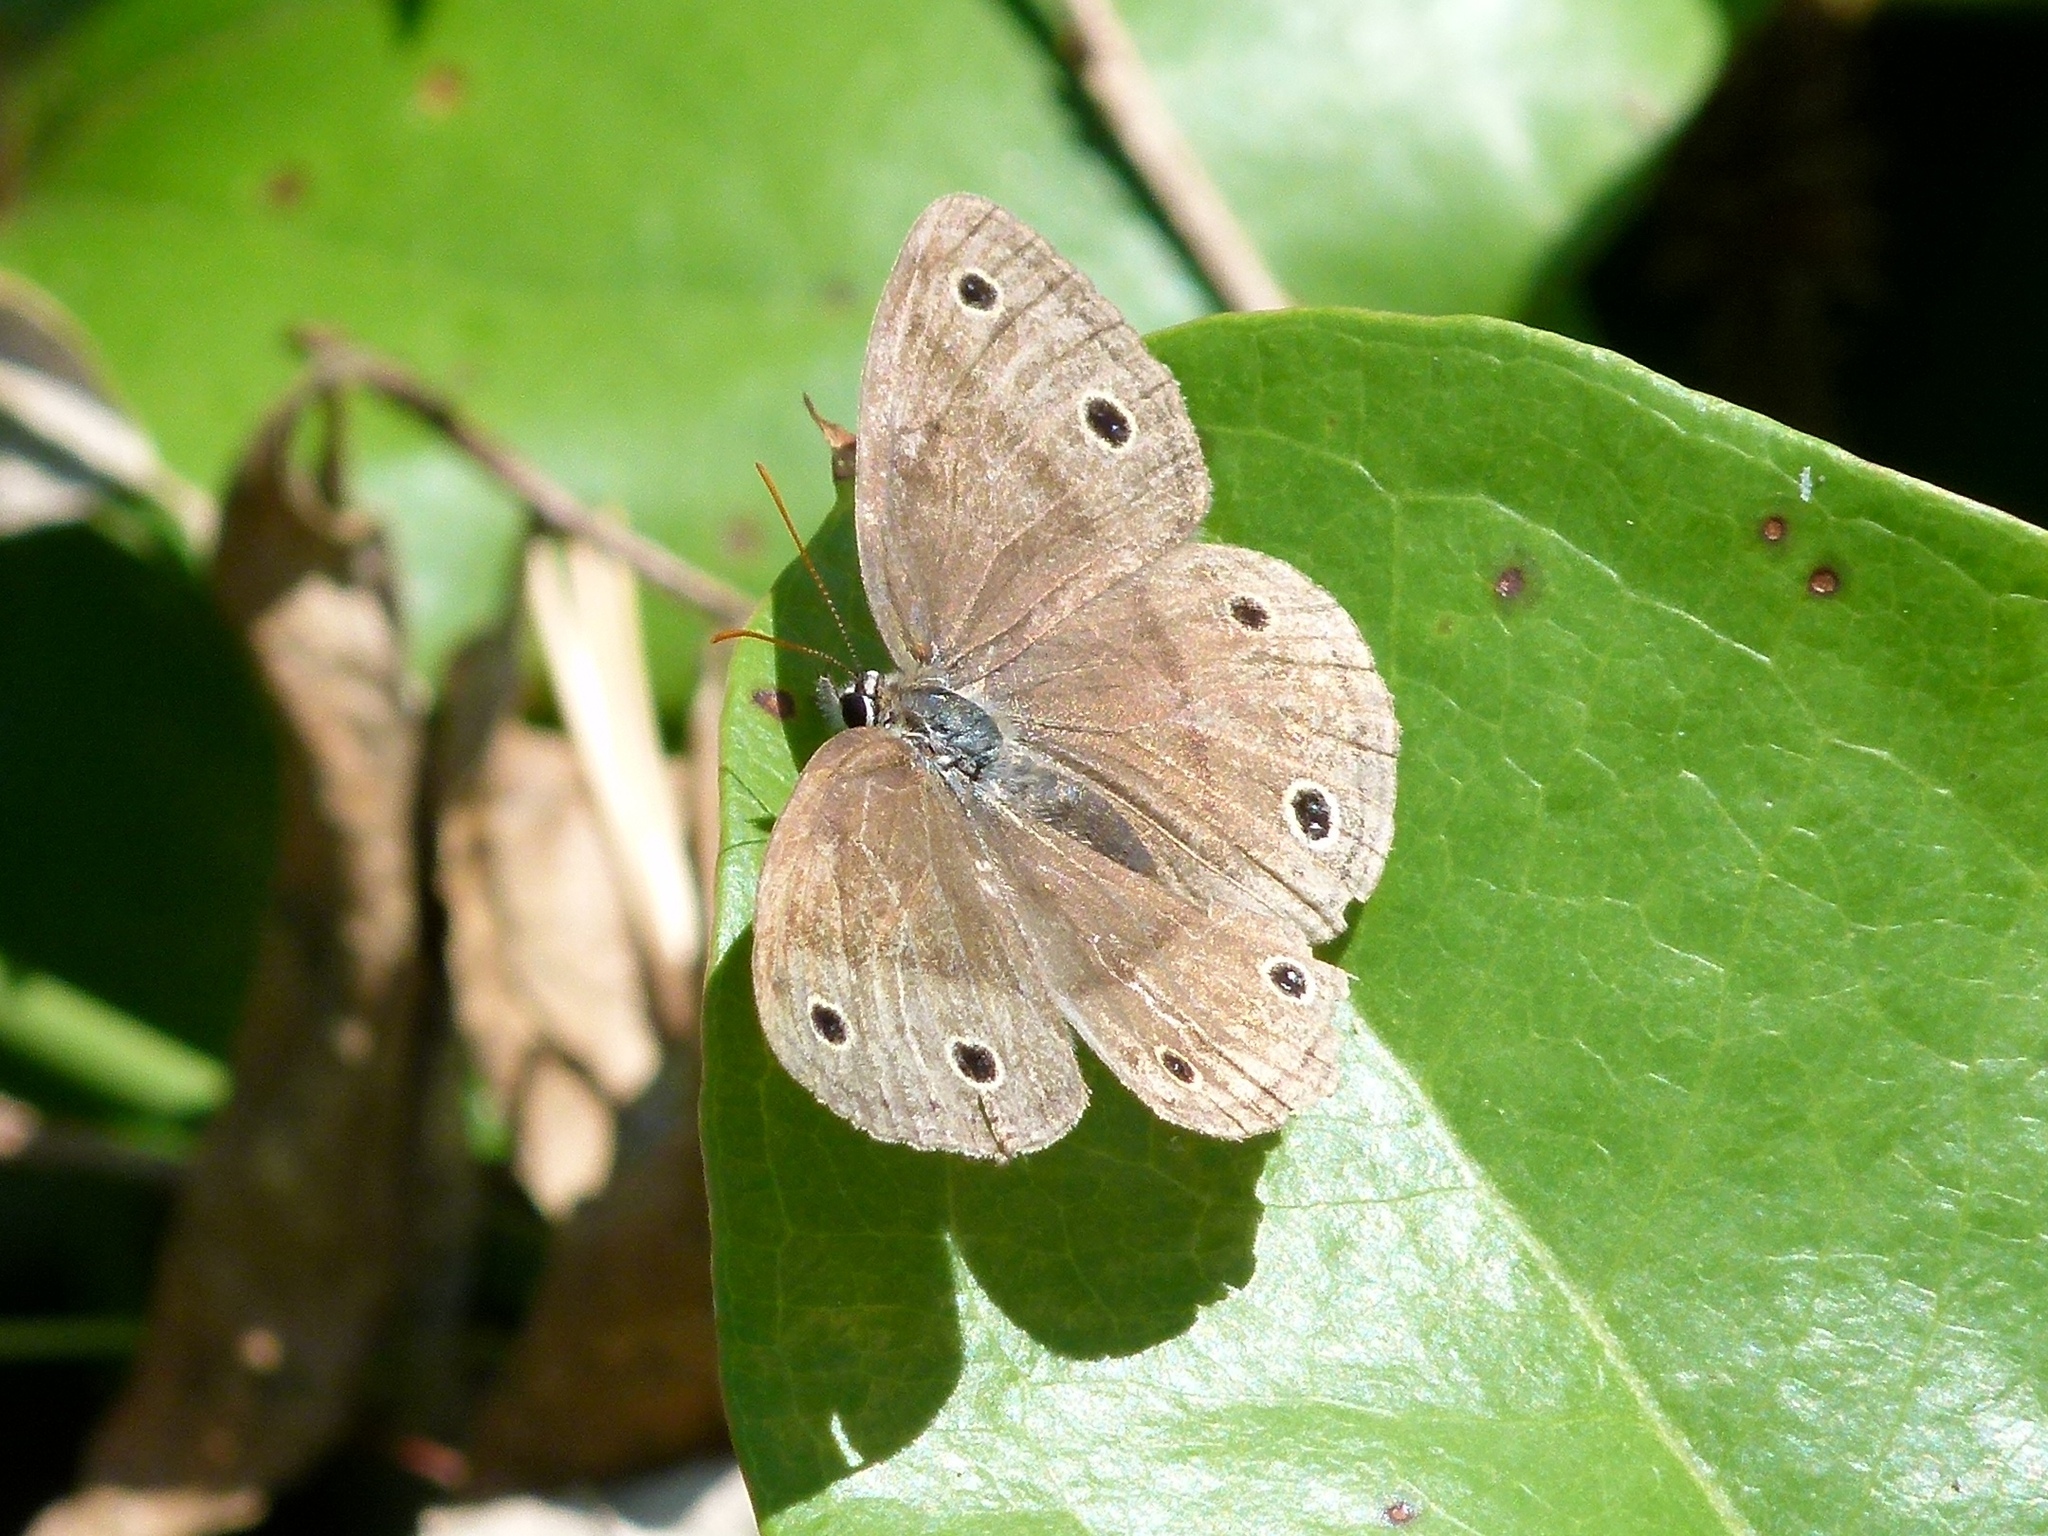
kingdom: Animalia
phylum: Arthropoda
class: Insecta
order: Lepidoptera
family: Nymphalidae
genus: Euptychia
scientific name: Euptychia cymela
